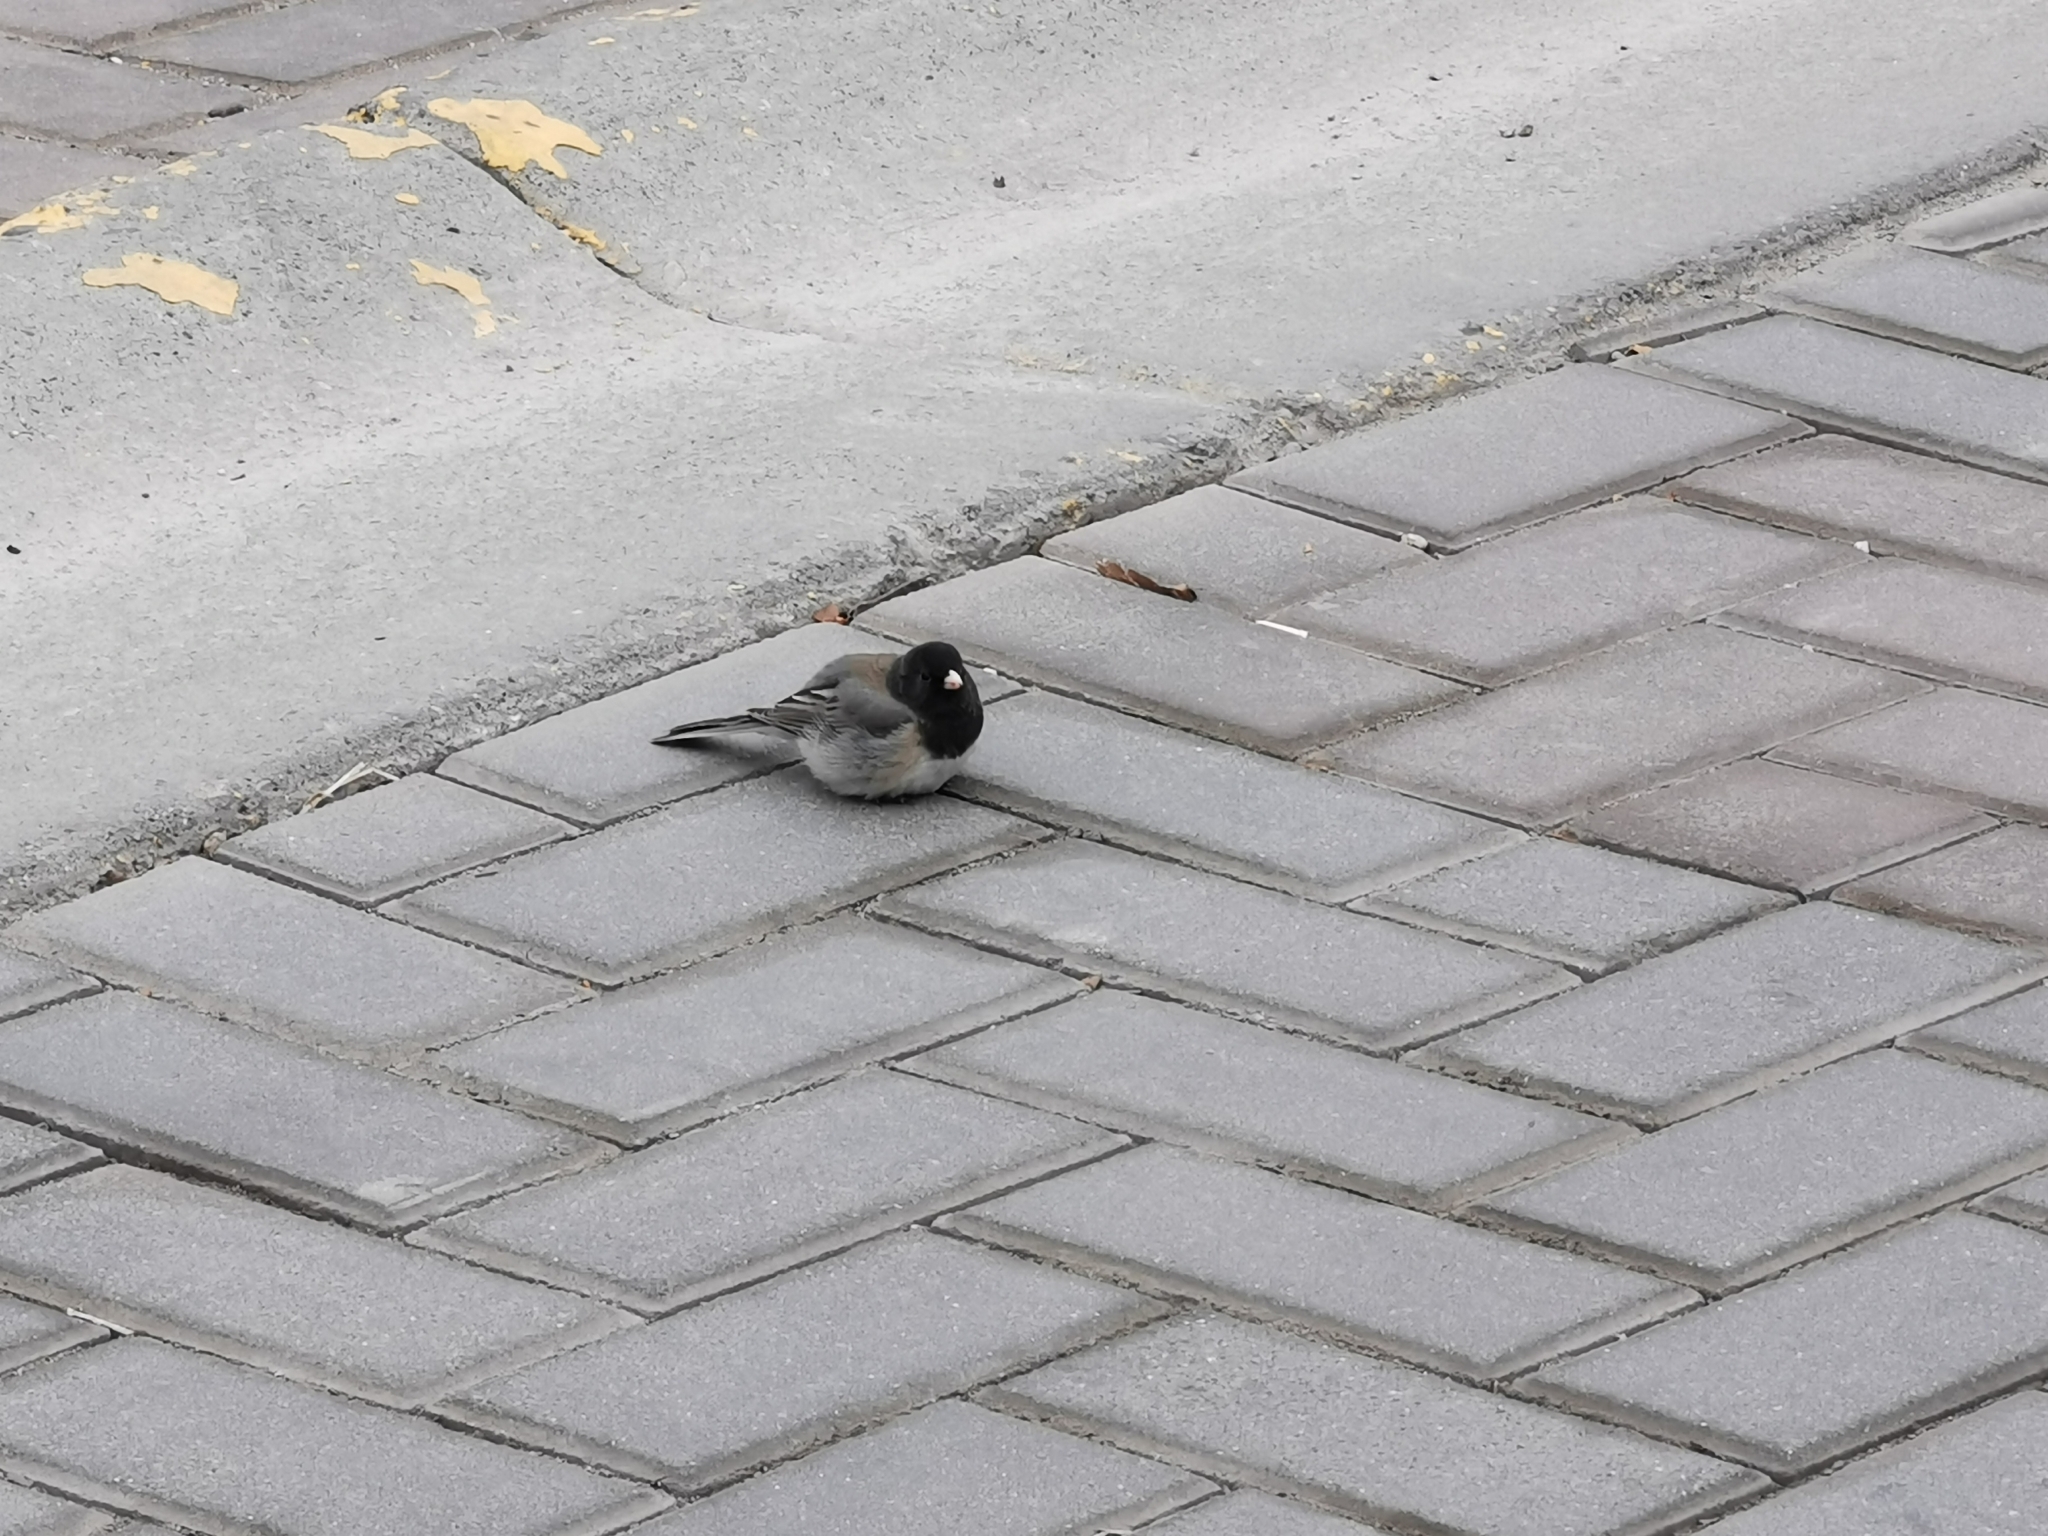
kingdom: Animalia
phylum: Chordata
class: Aves
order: Passeriformes
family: Passerellidae
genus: Junco
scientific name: Junco hyemalis
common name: Dark-eyed junco
